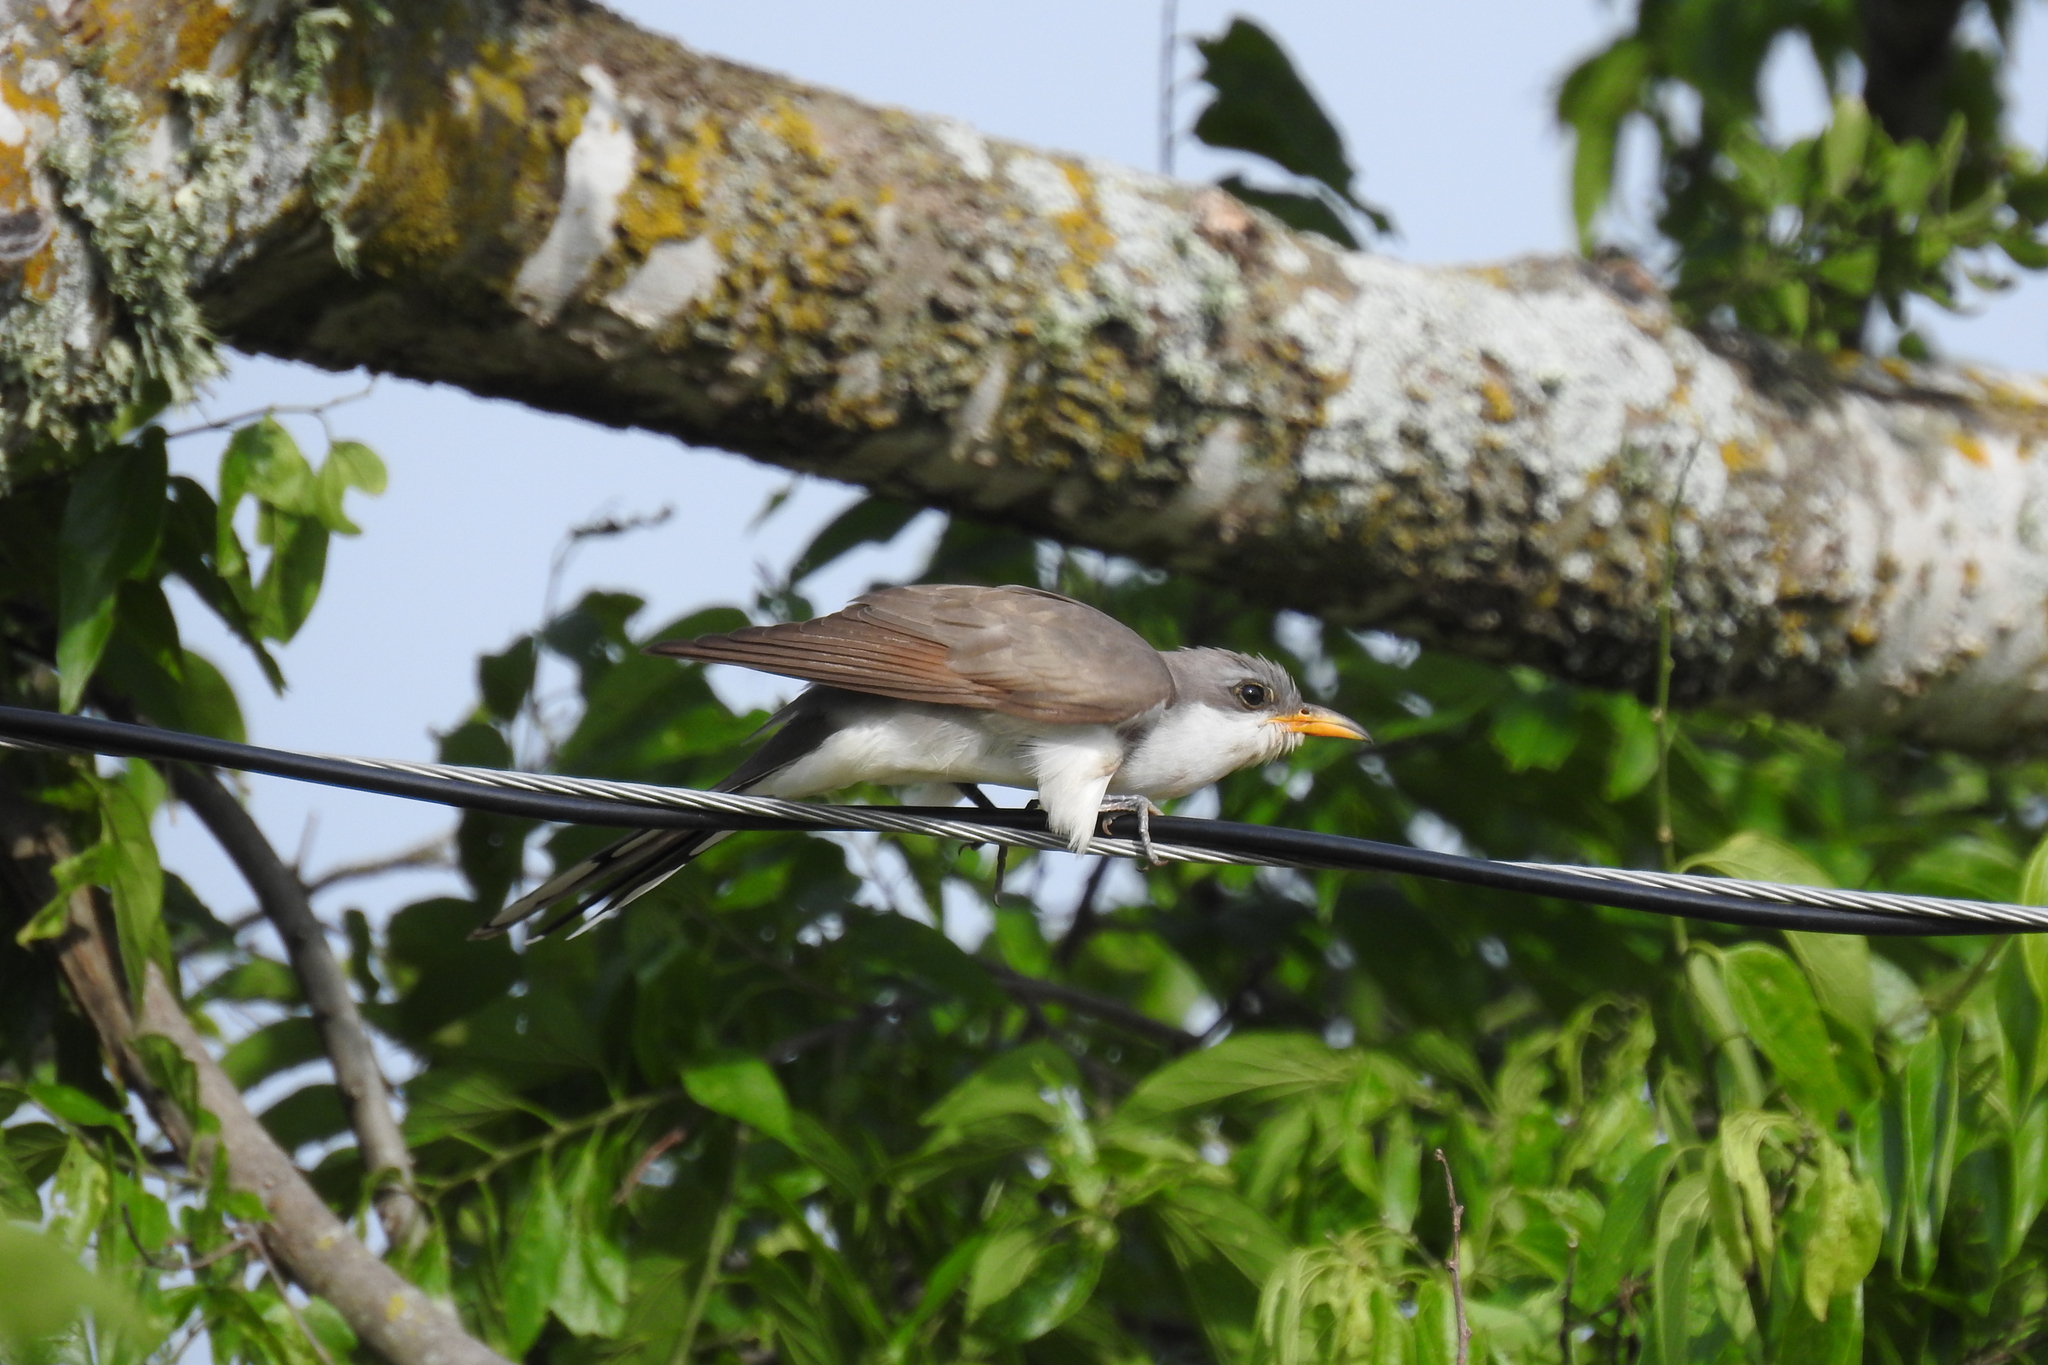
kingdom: Animalia
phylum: Chordata
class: Aves
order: Cuculiformes
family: Cuculidae
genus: Coccyzus
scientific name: Coccyzus americanus
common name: Yellow-billed cuckoo
